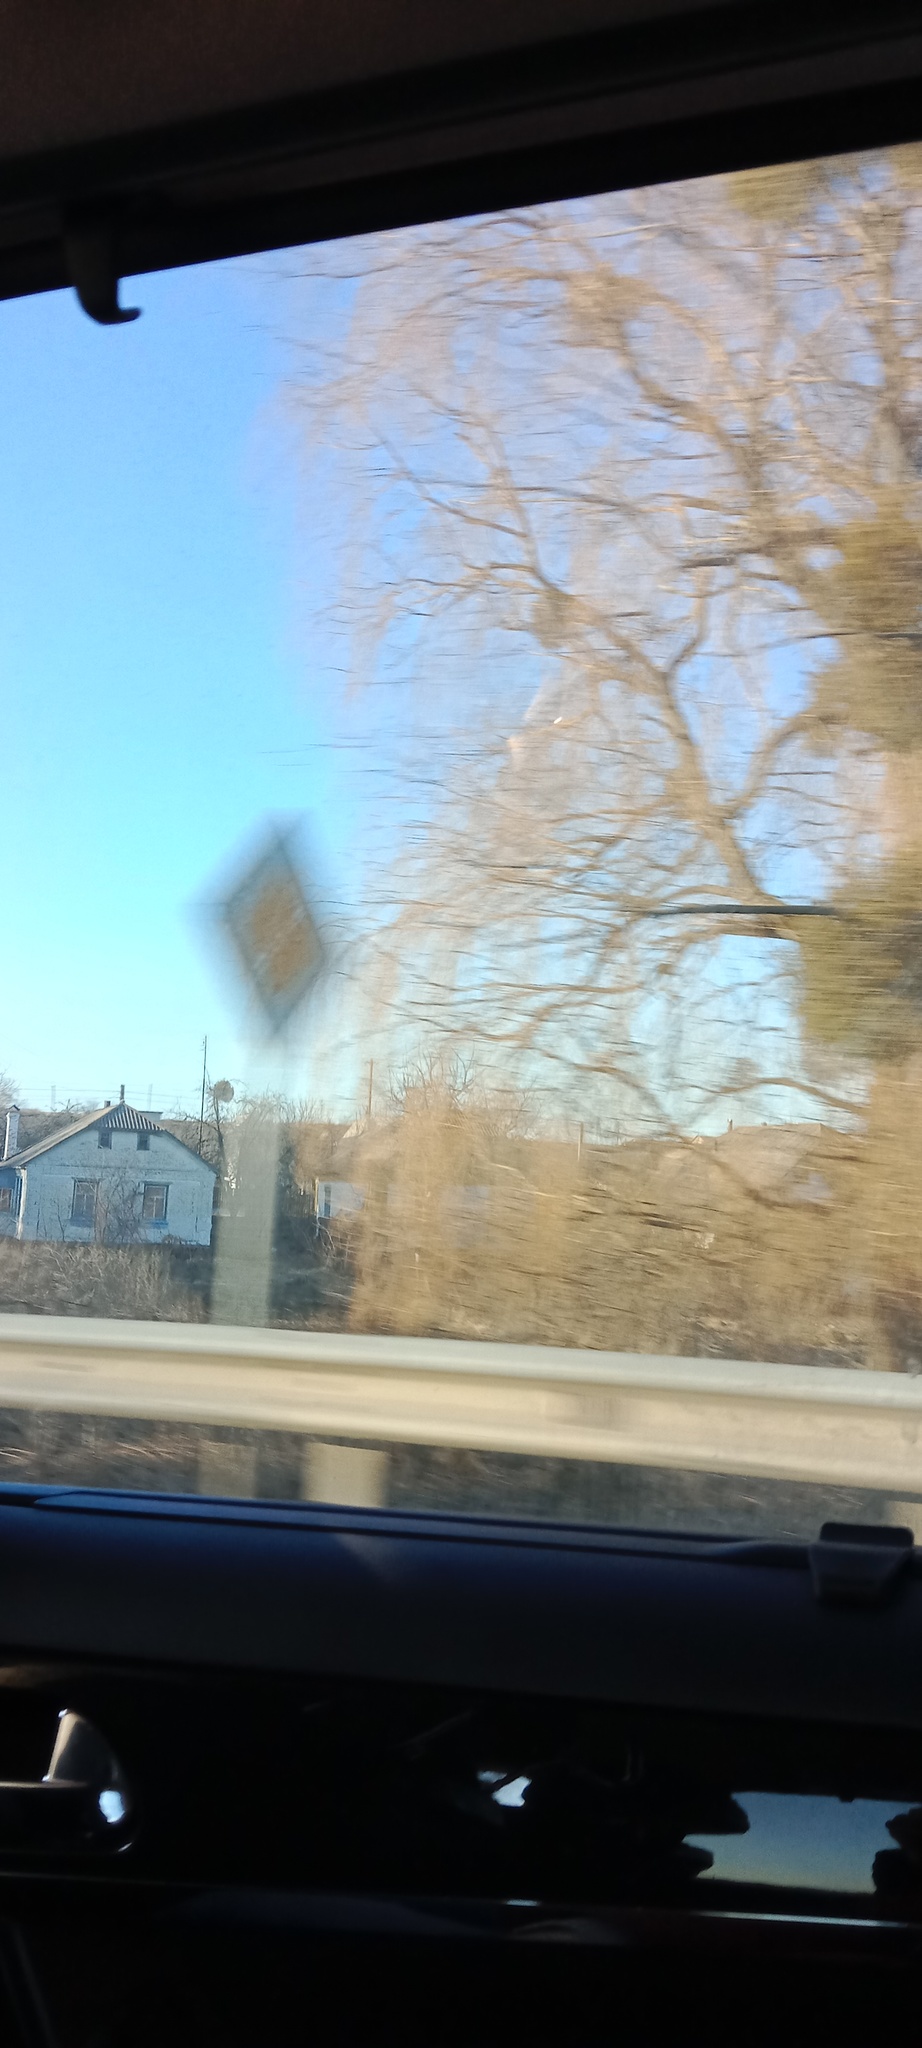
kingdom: Plantae
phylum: Tracheophyta
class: Magnoliopsida
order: Santalales
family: Viscaceae
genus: Viscum
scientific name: Viscum album
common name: Mistletoe
